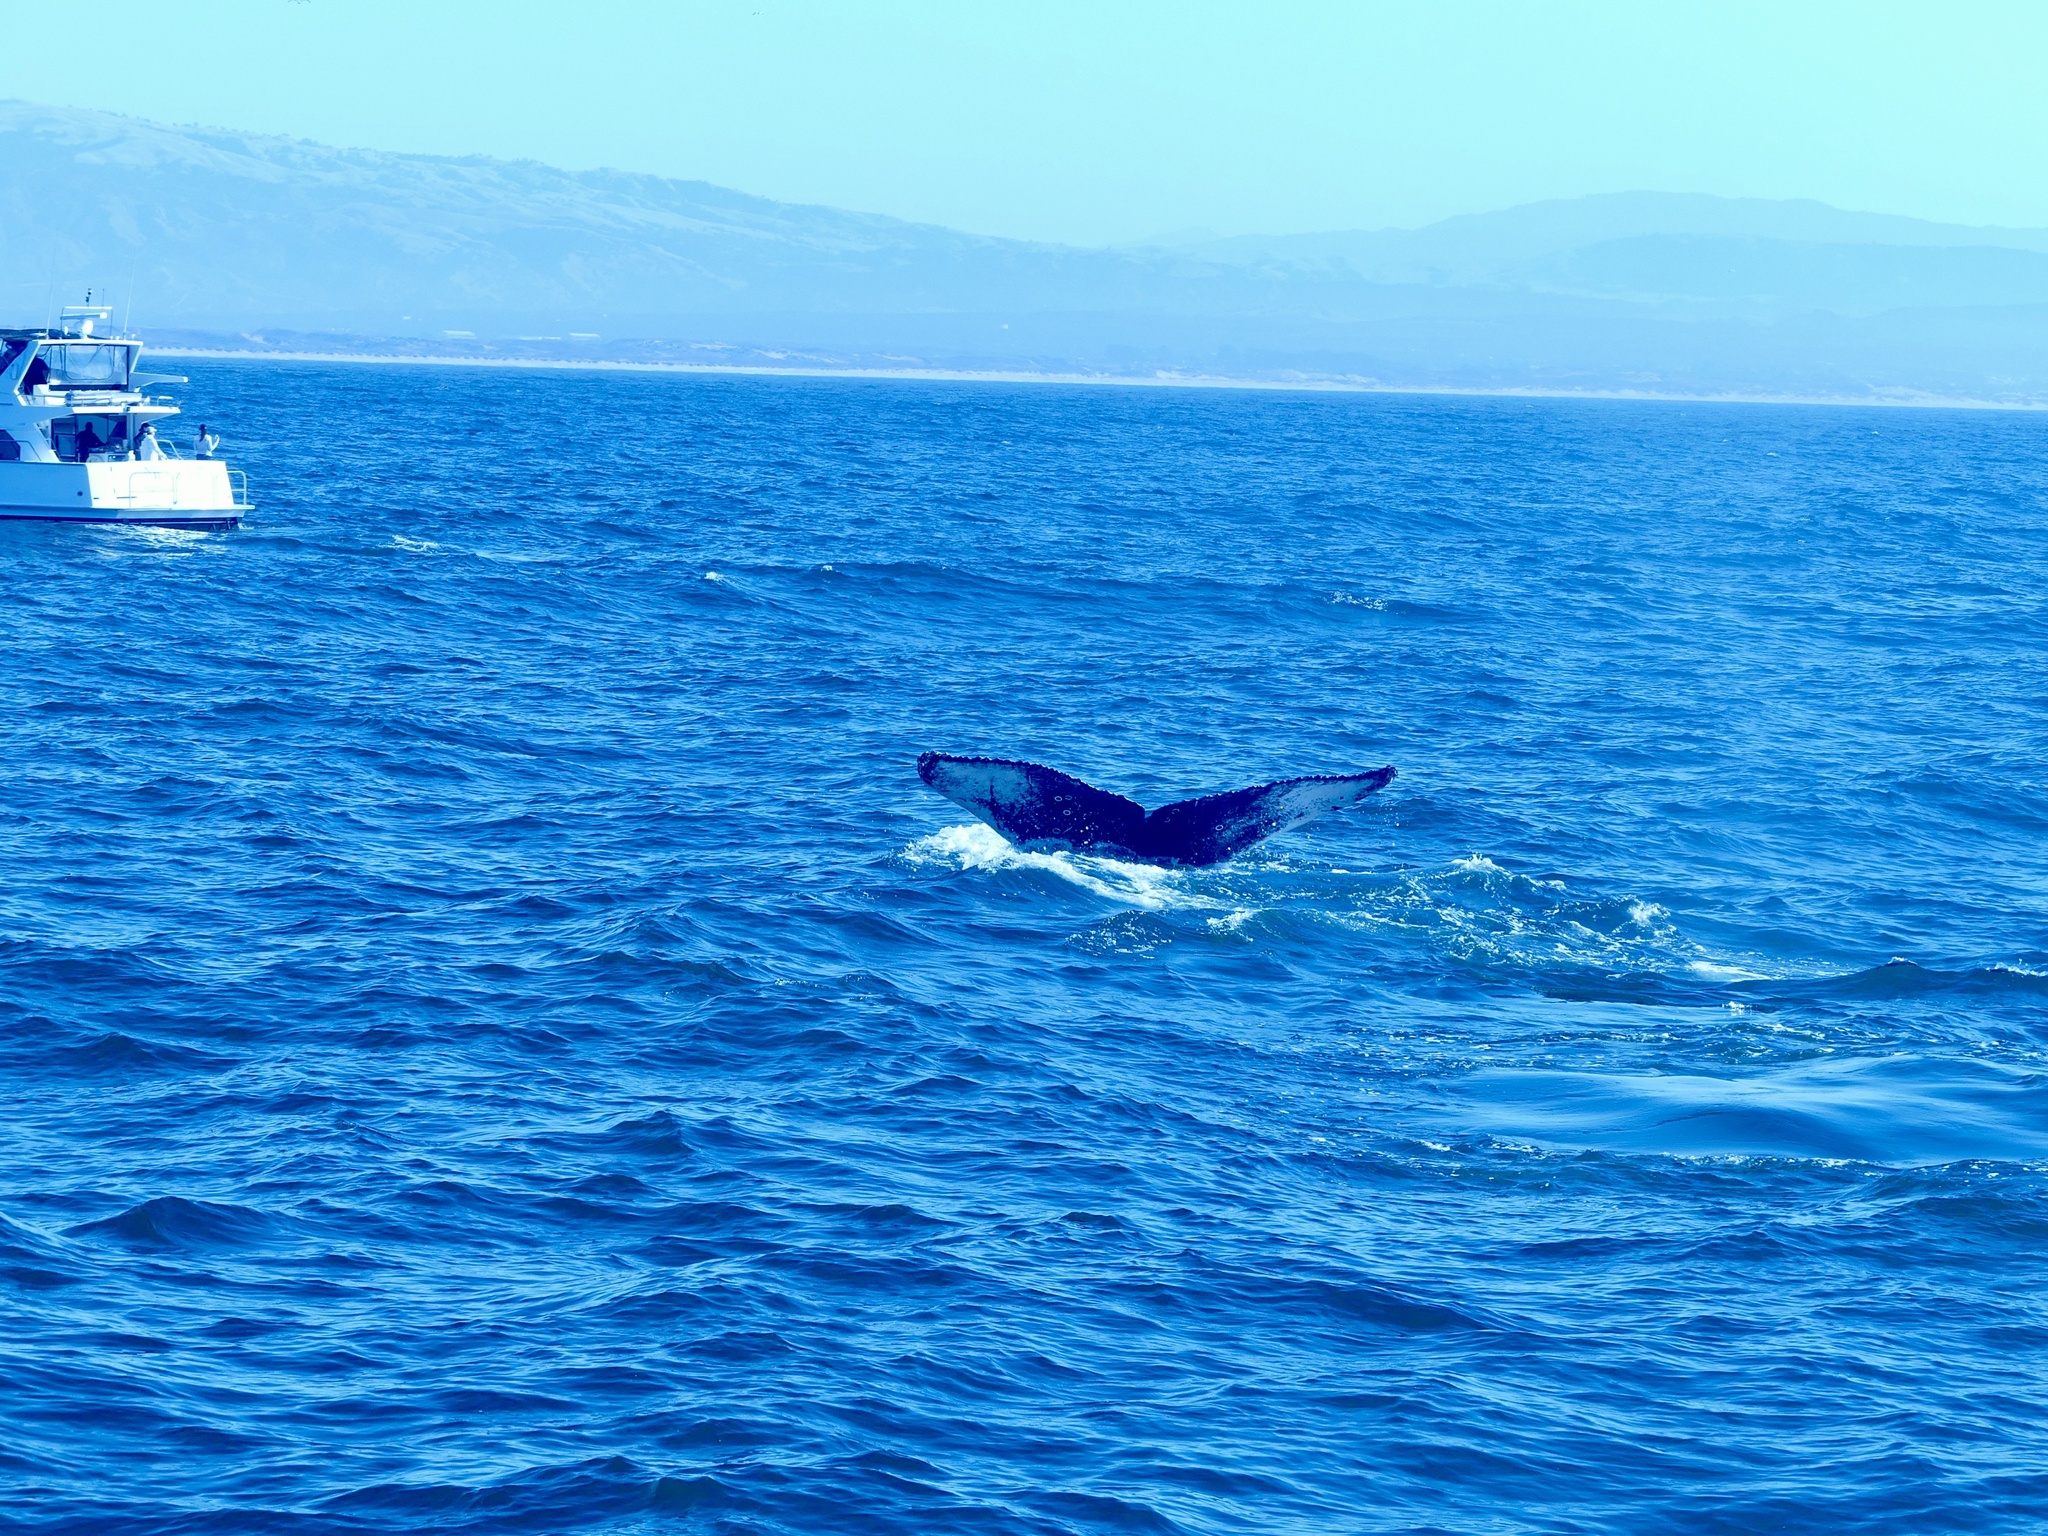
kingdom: Animalia
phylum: Chordata
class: Mammalia
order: Cetacea
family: Balaenopteridae
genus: Megaptera
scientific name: Megaptera novaeangliae
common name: Humpback whale
